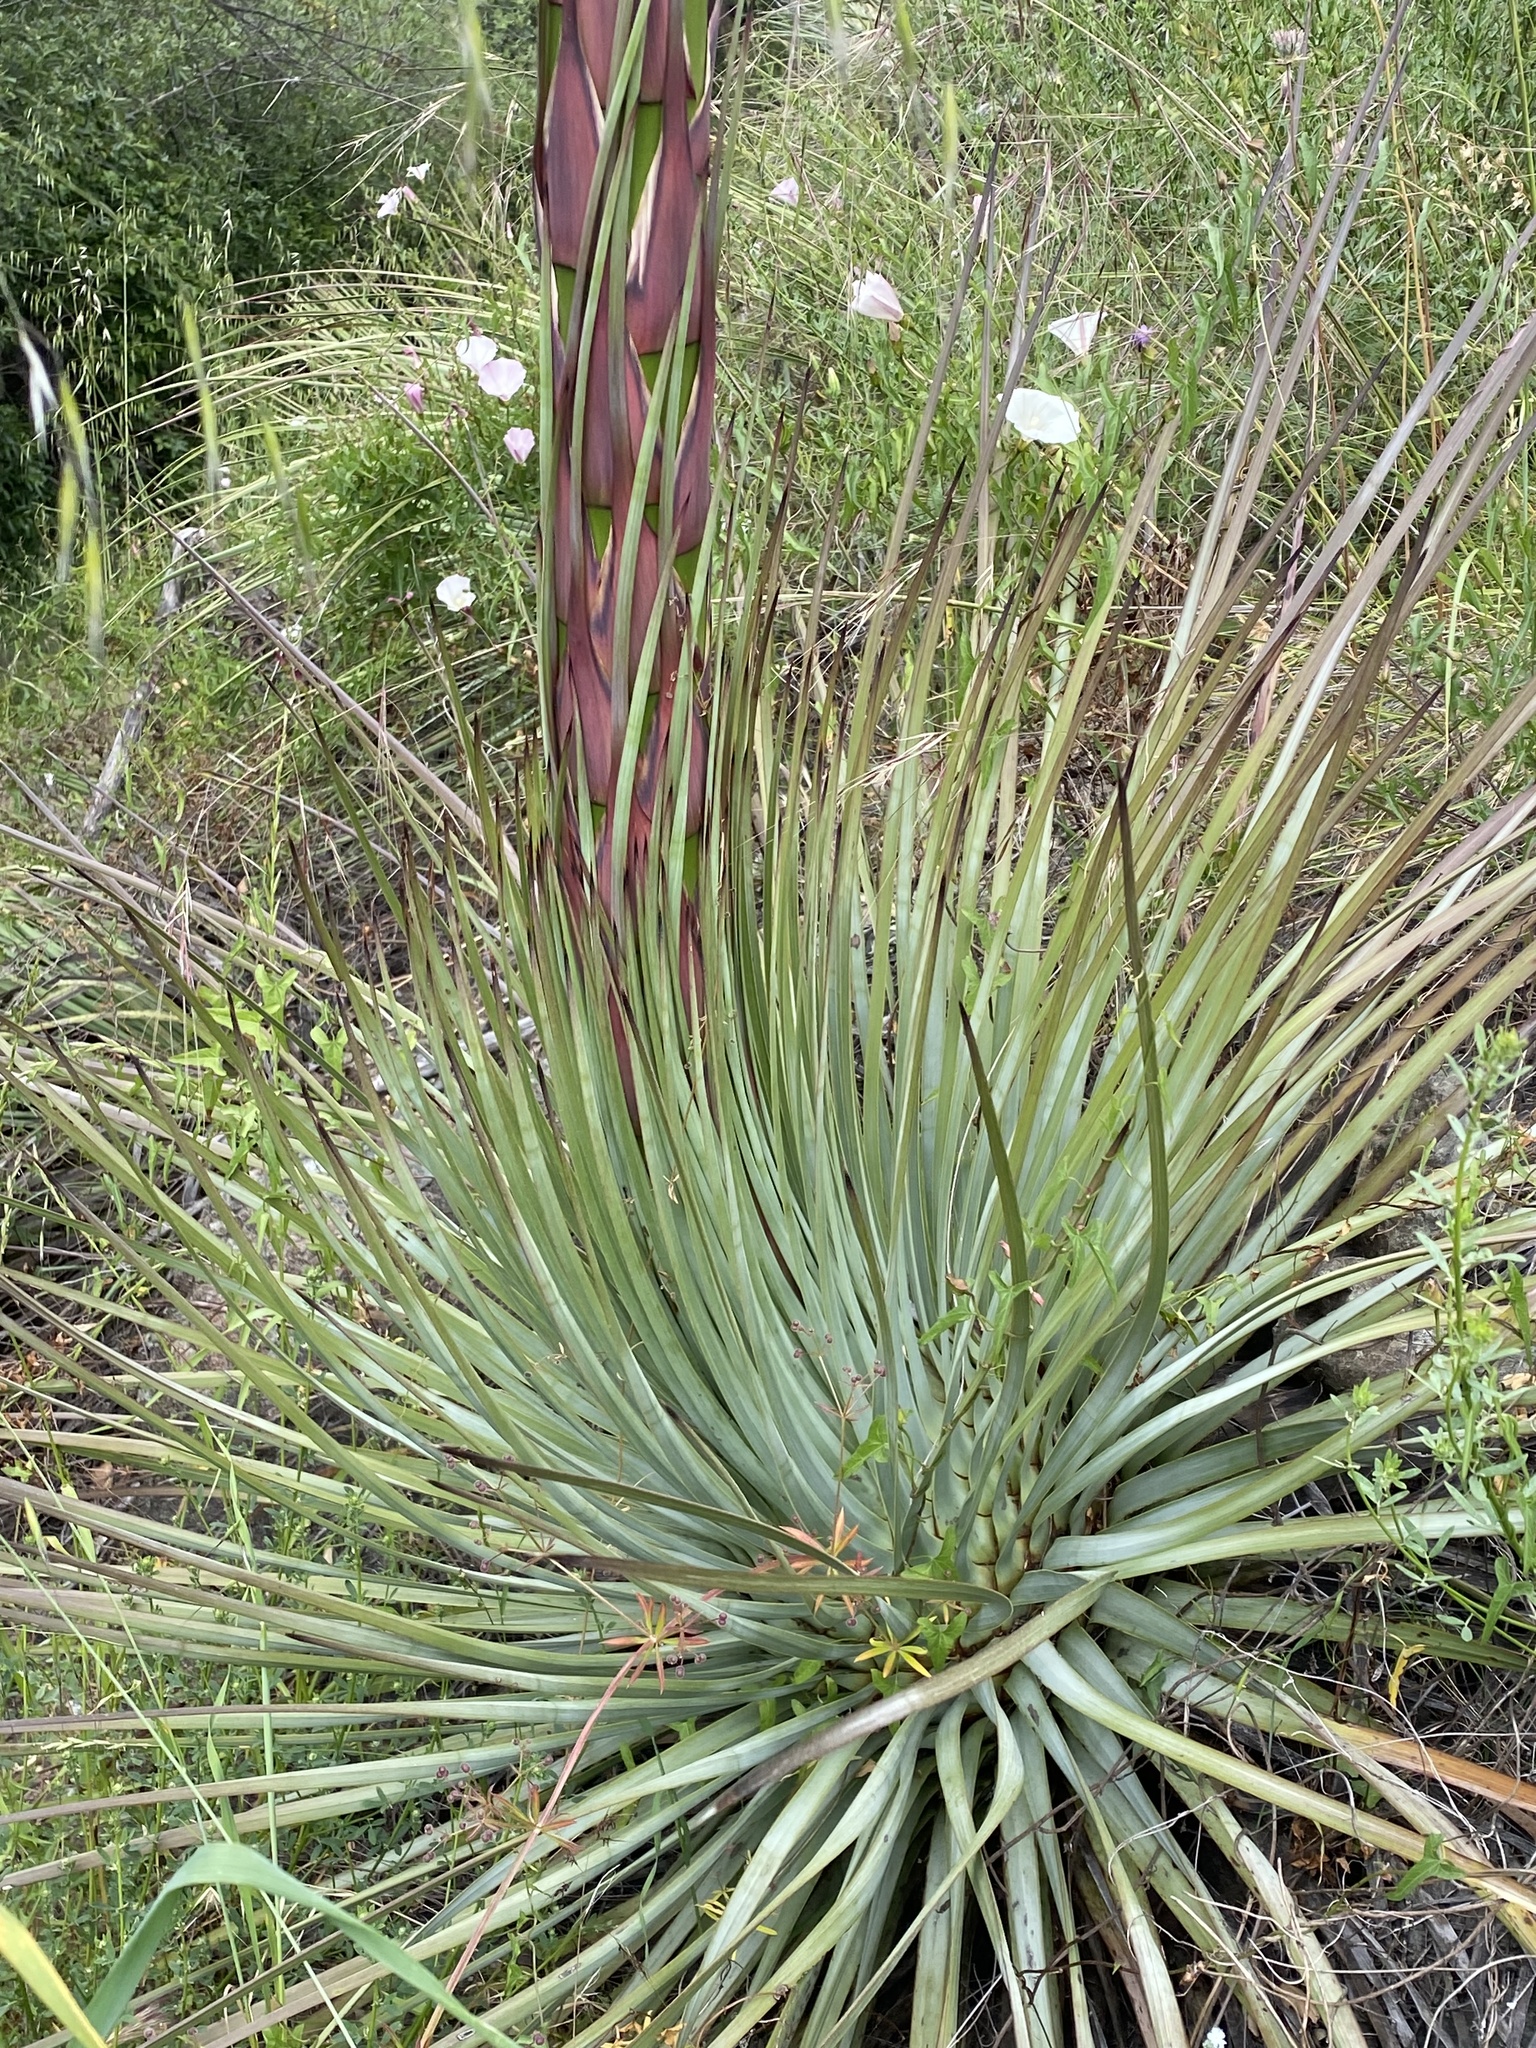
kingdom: Plantae
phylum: Tracheophyta
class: Liliopsida
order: Asparagales
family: Asparagaceae
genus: Hesperoyucca
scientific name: Hesperoyucca whipplei
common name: Our lord's-candle
